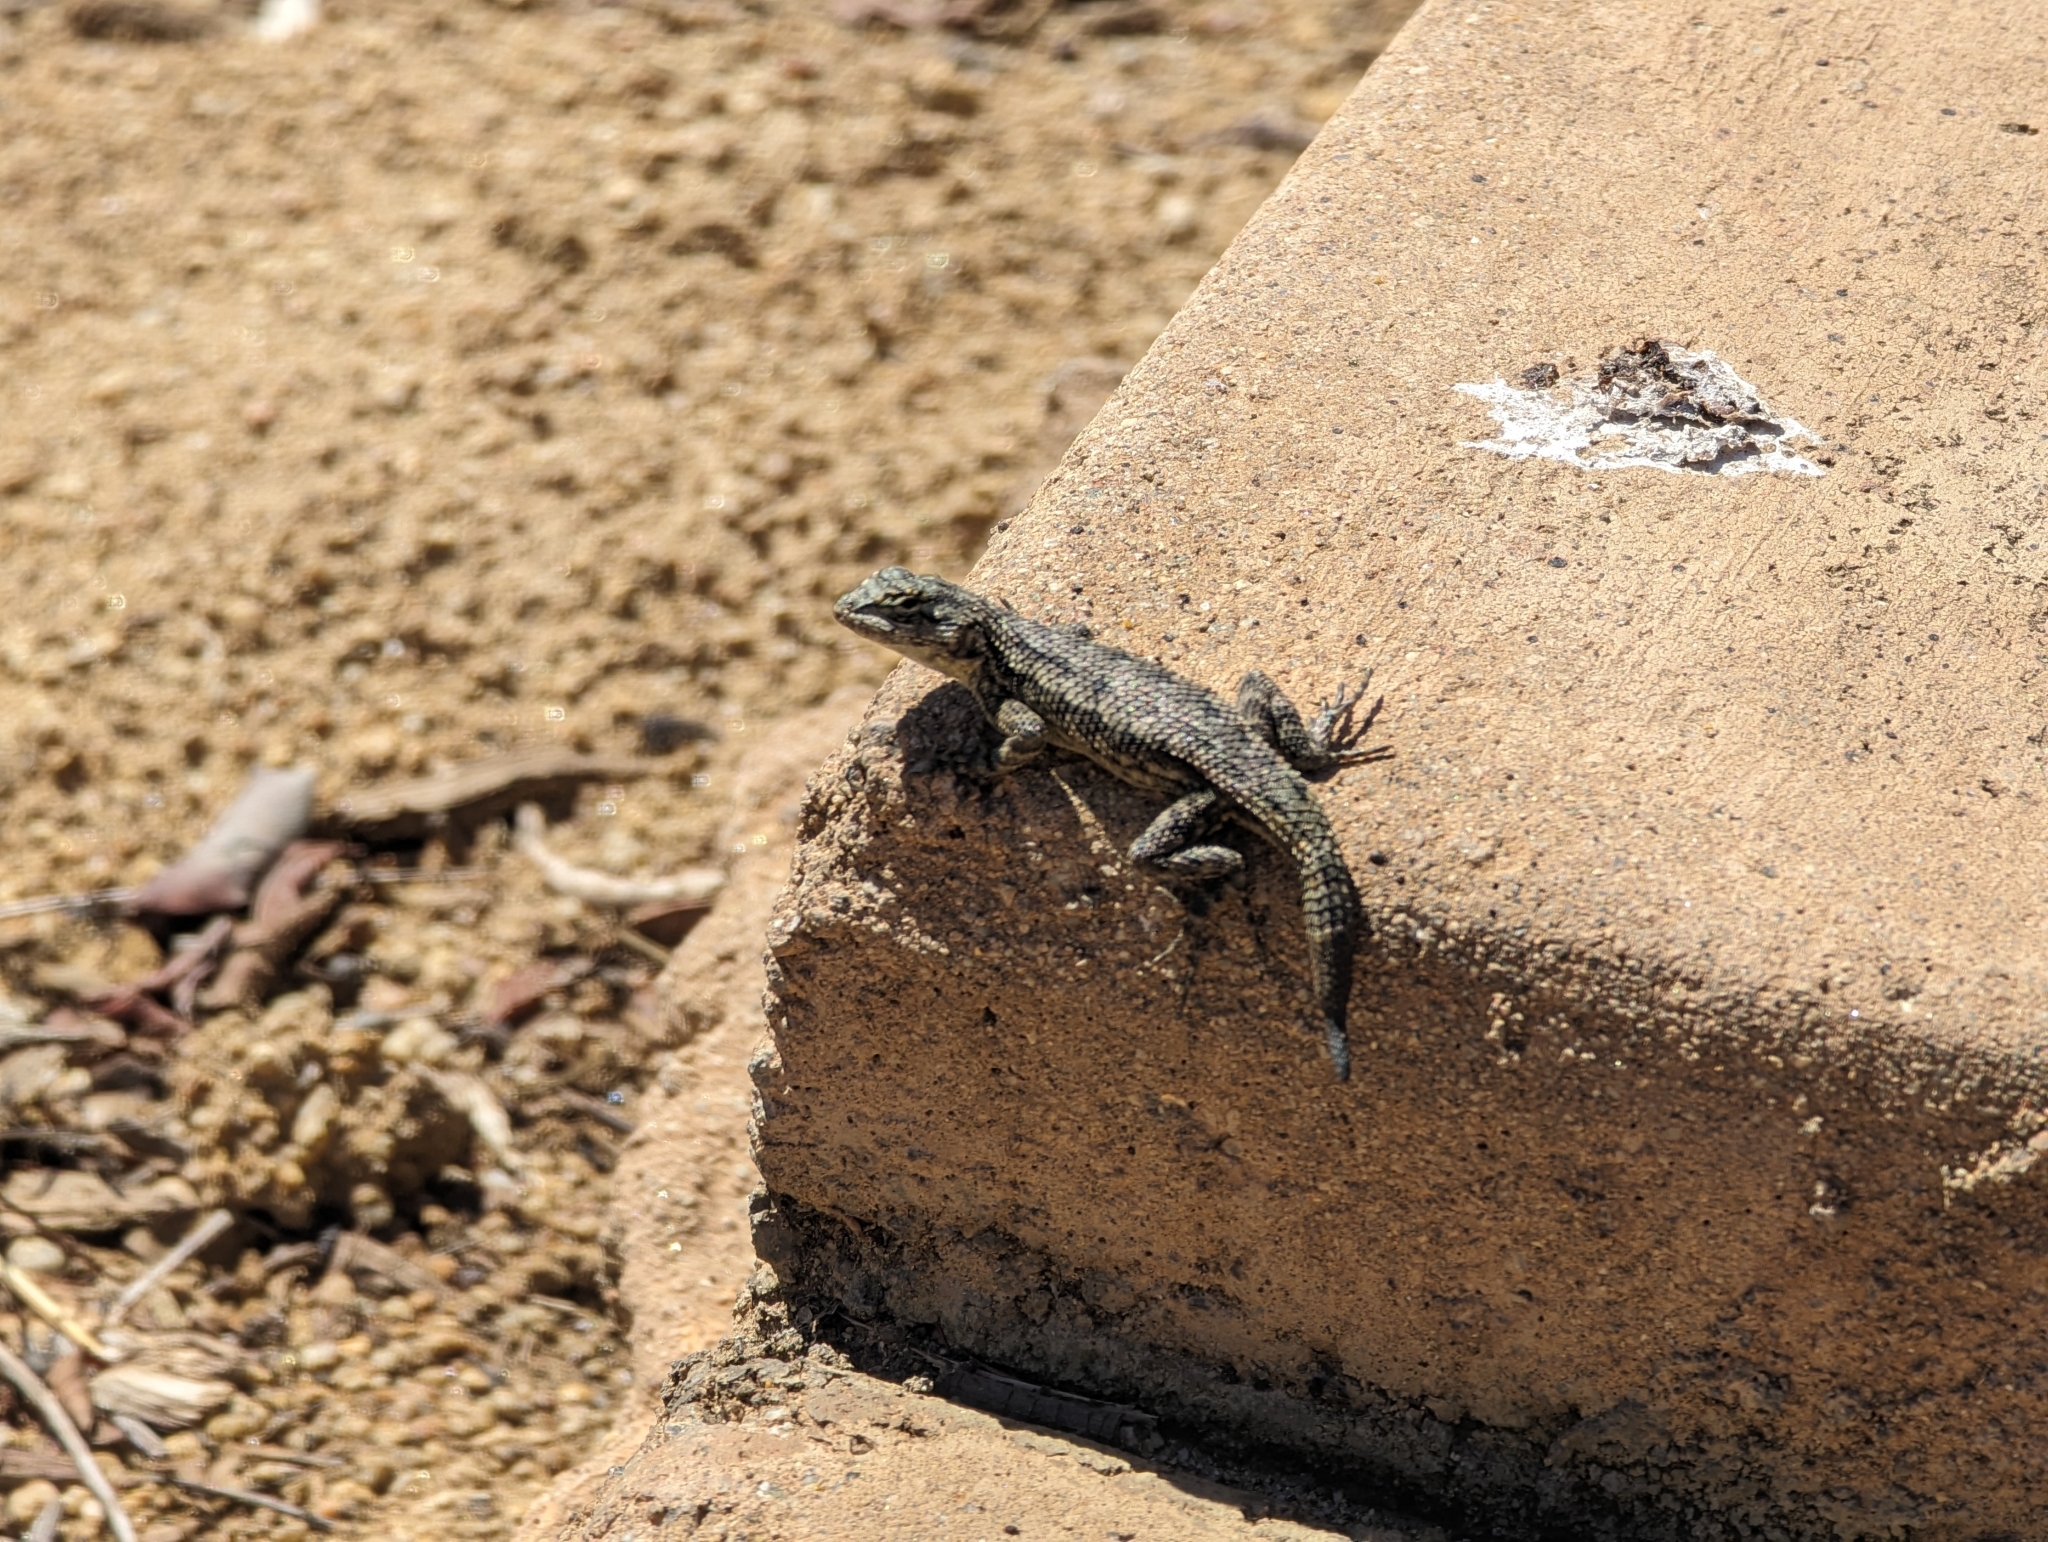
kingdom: Animalia
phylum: Chordata
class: Squamata
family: Phrynosomatidae
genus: Sceloporus
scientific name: Sceloporus occidentalis
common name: Western fence lizard
